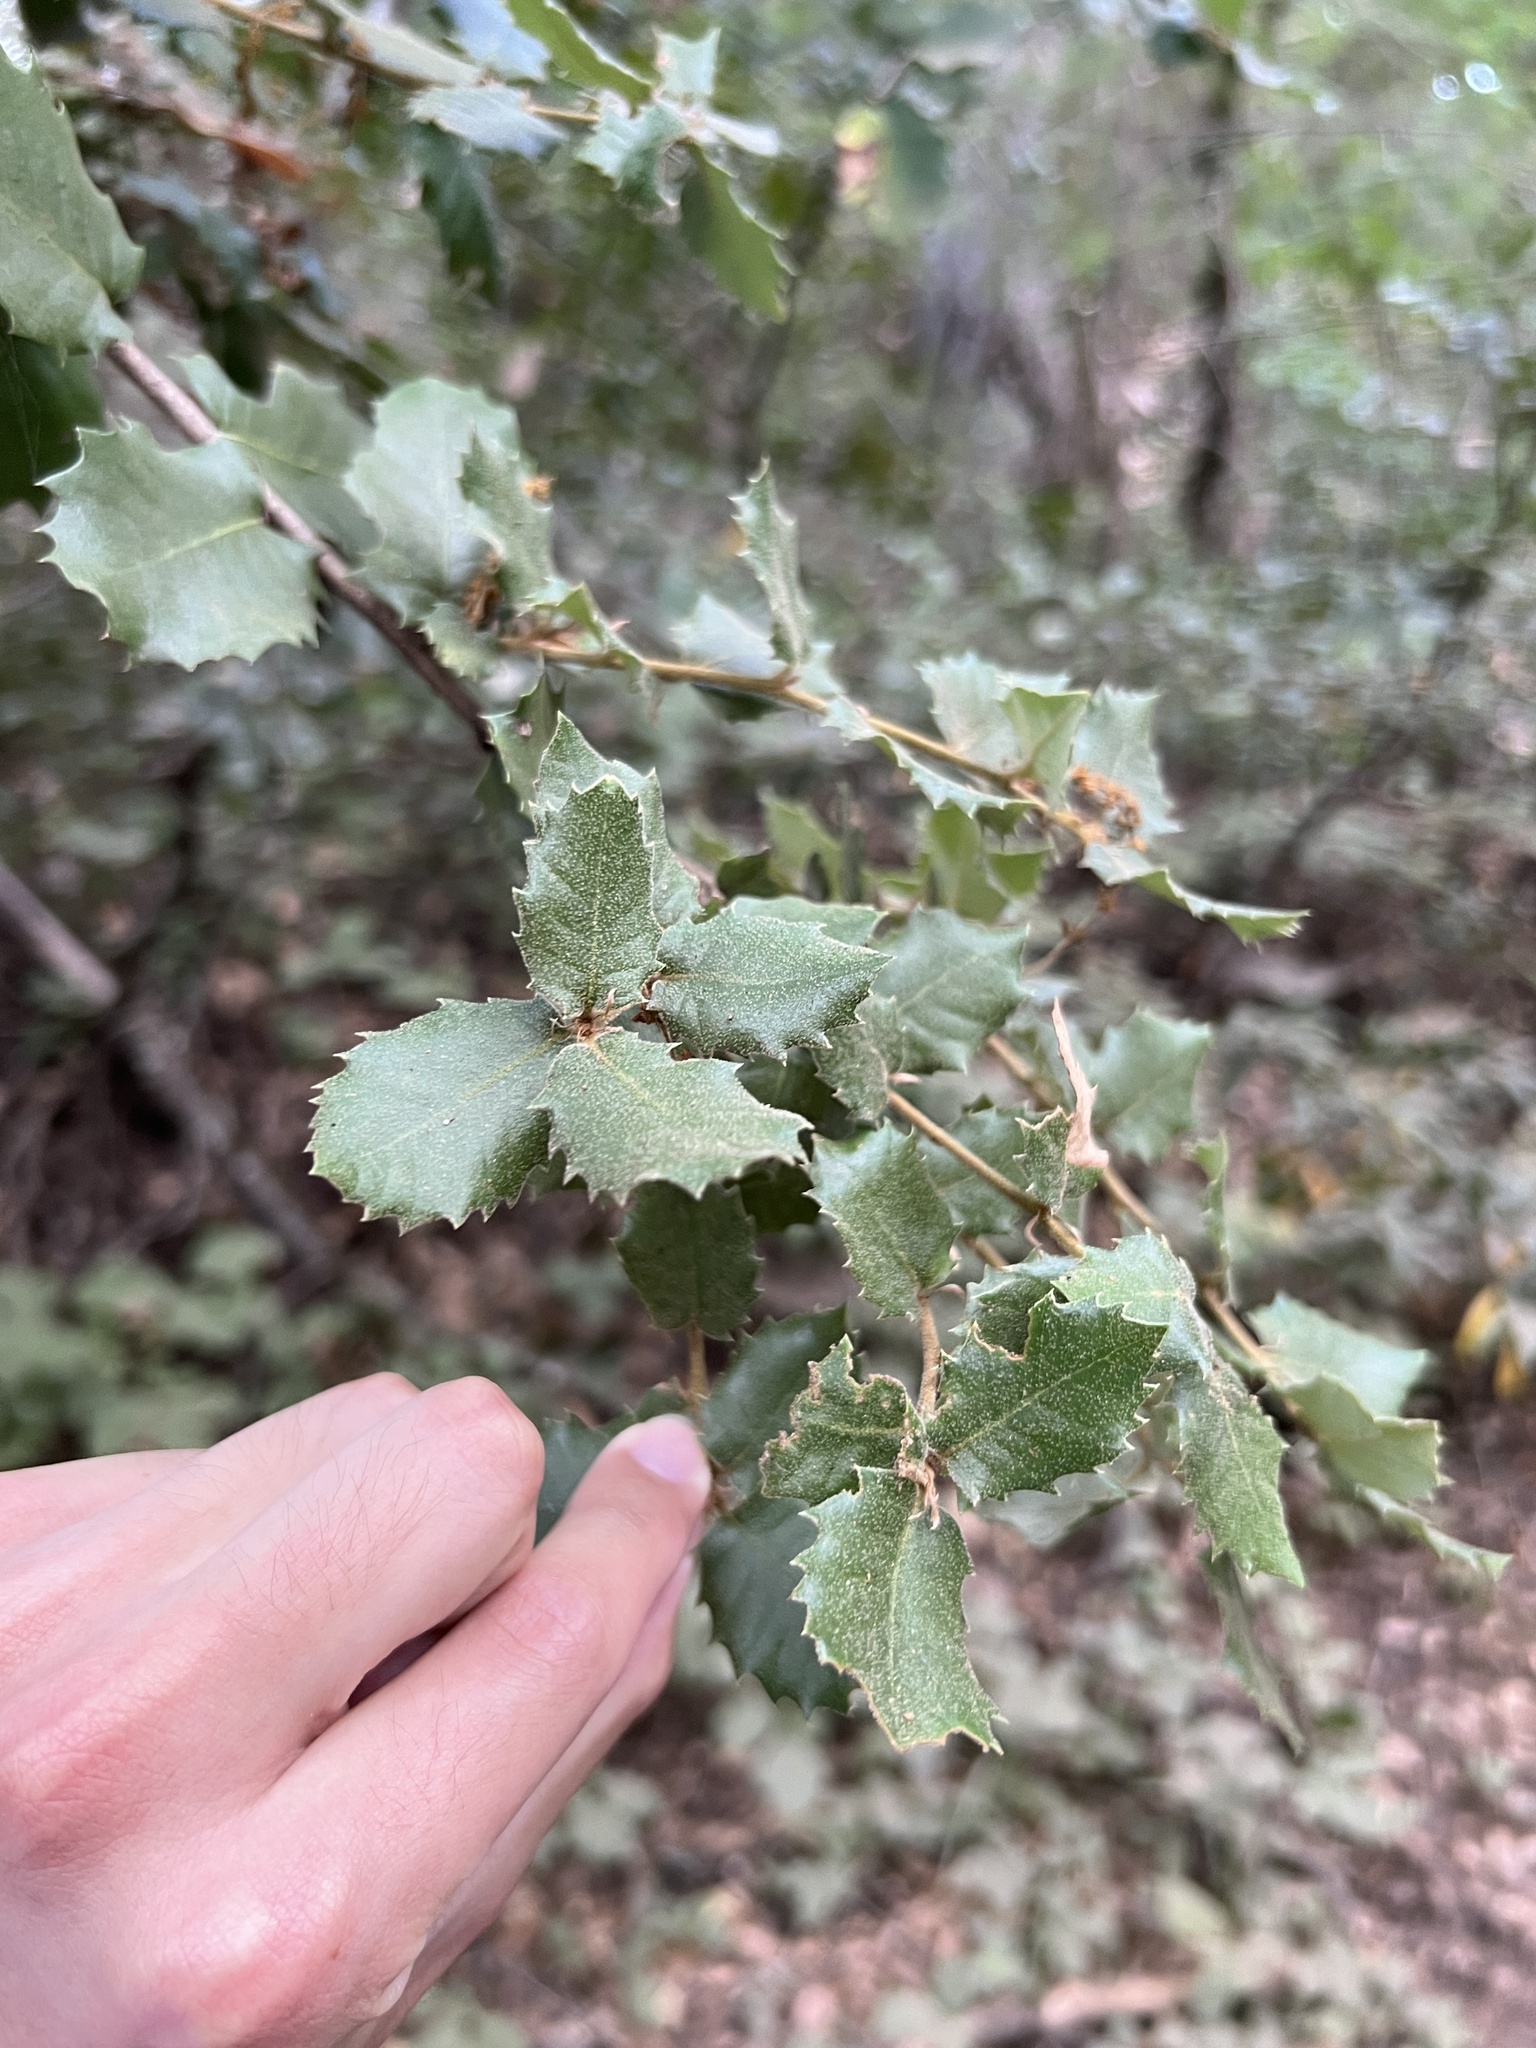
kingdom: Plantae
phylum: Tracheophyta
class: Magnoliopsida
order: Fagales
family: Fagaceae
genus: Quercus
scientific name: Quercus chrysolepis
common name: Canyon live oak
